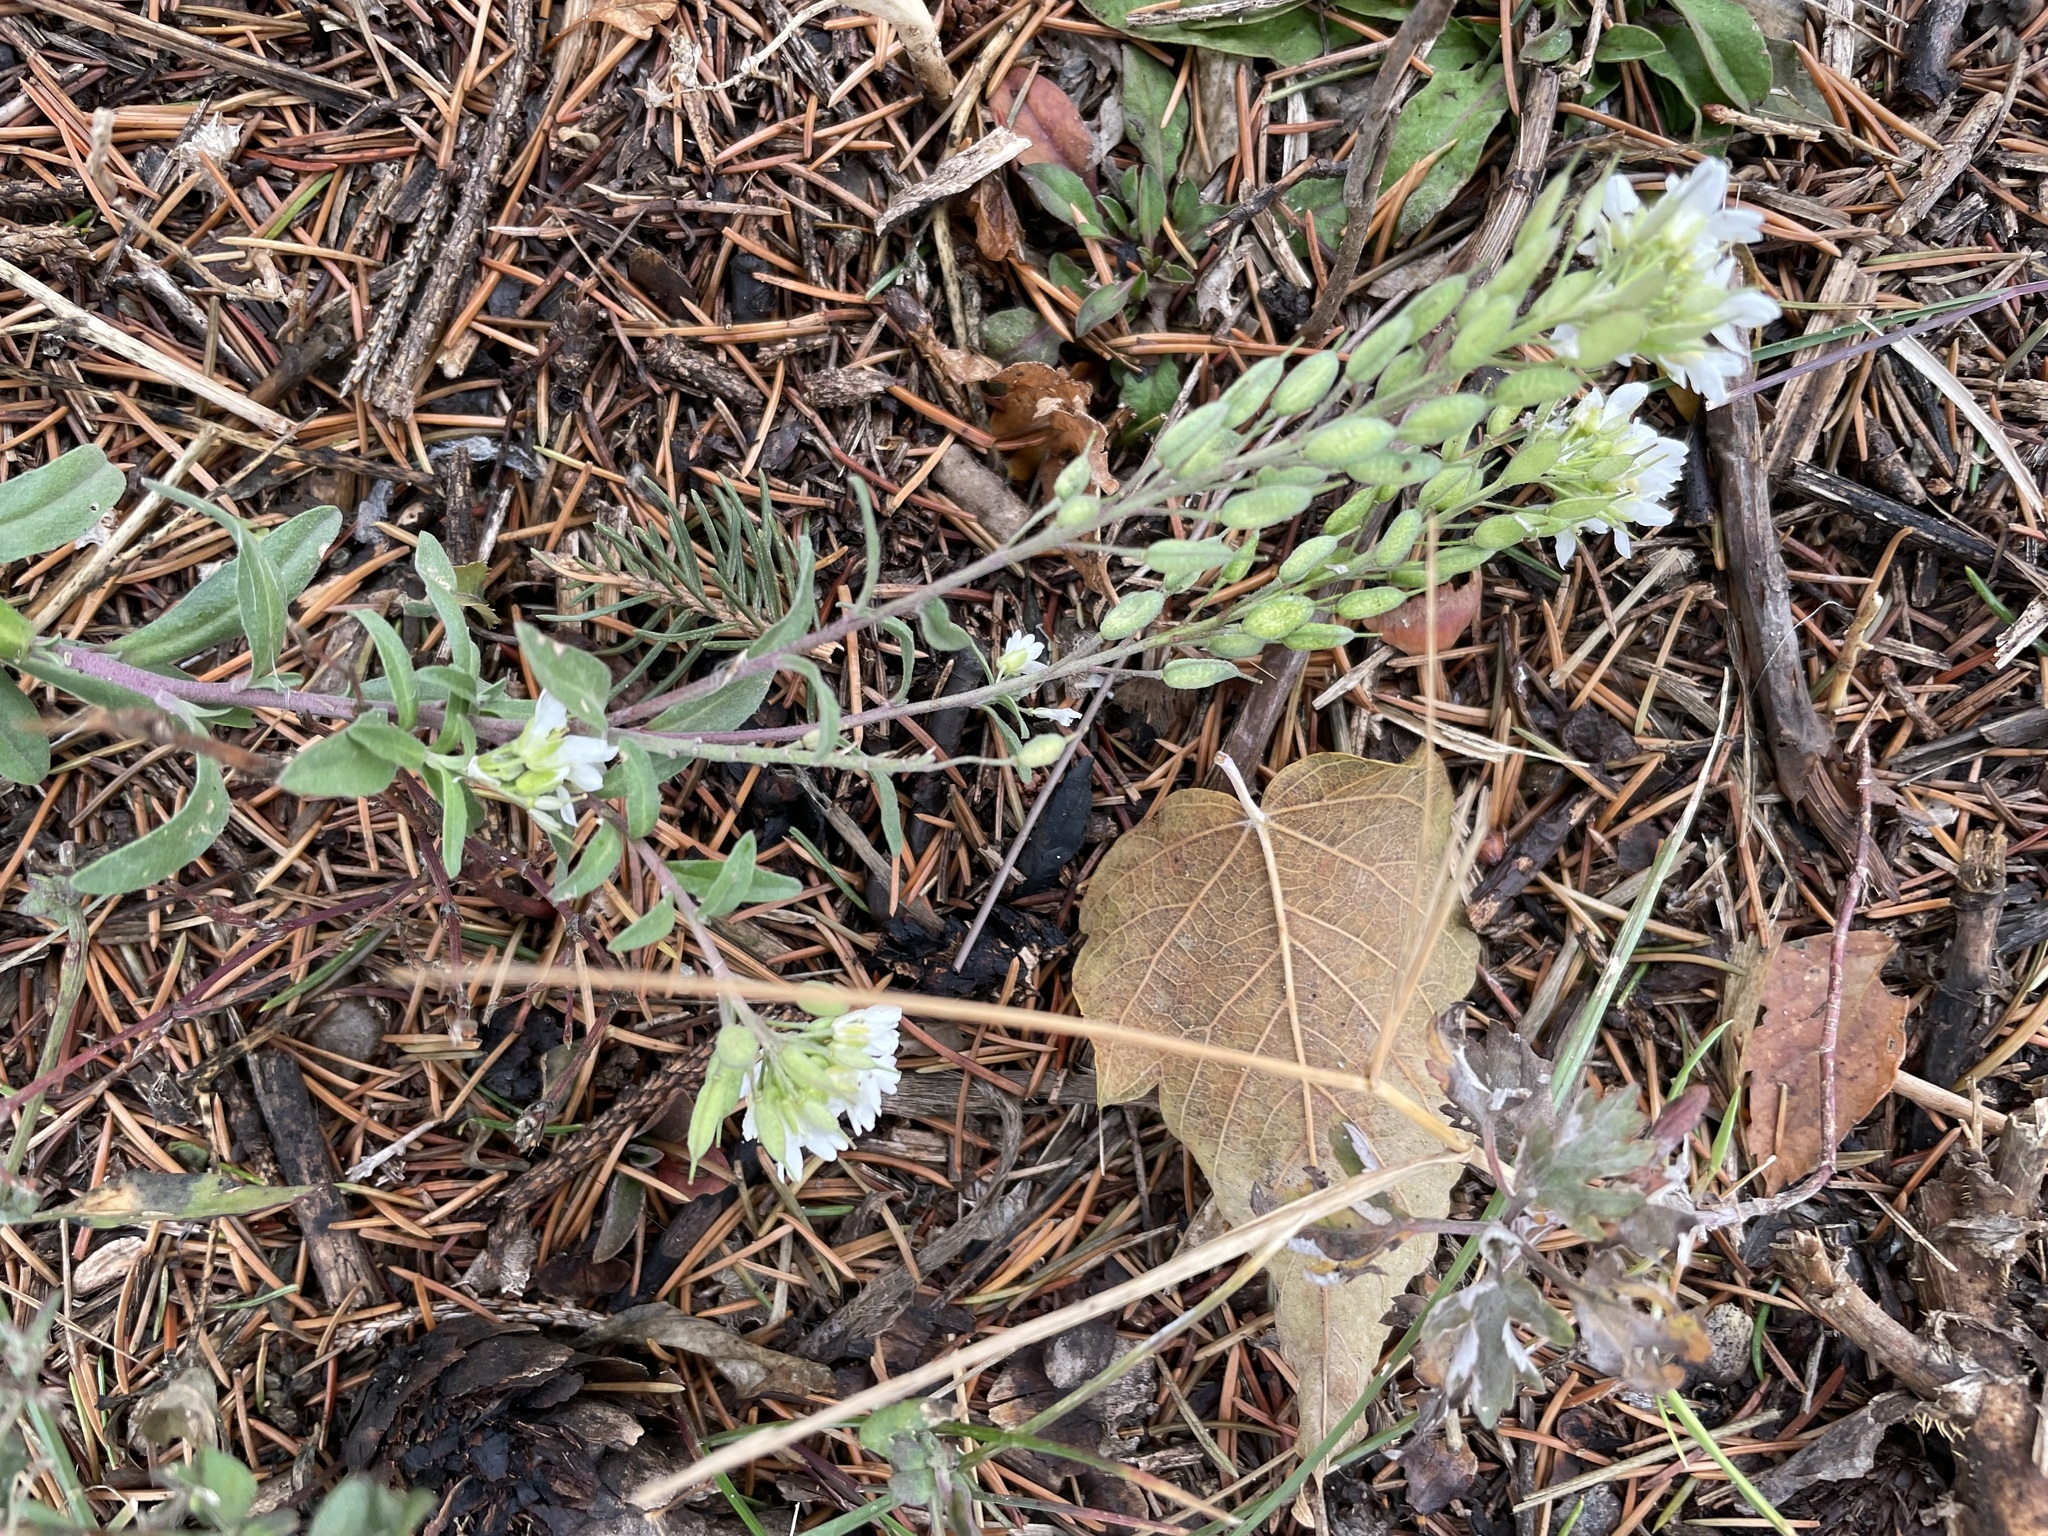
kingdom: Plantae
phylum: Tracheophyta
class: Magnoliopsida
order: Brassicales
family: Brassicaceae
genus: Berteroa
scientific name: Berteroa incana
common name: Hoary alison
